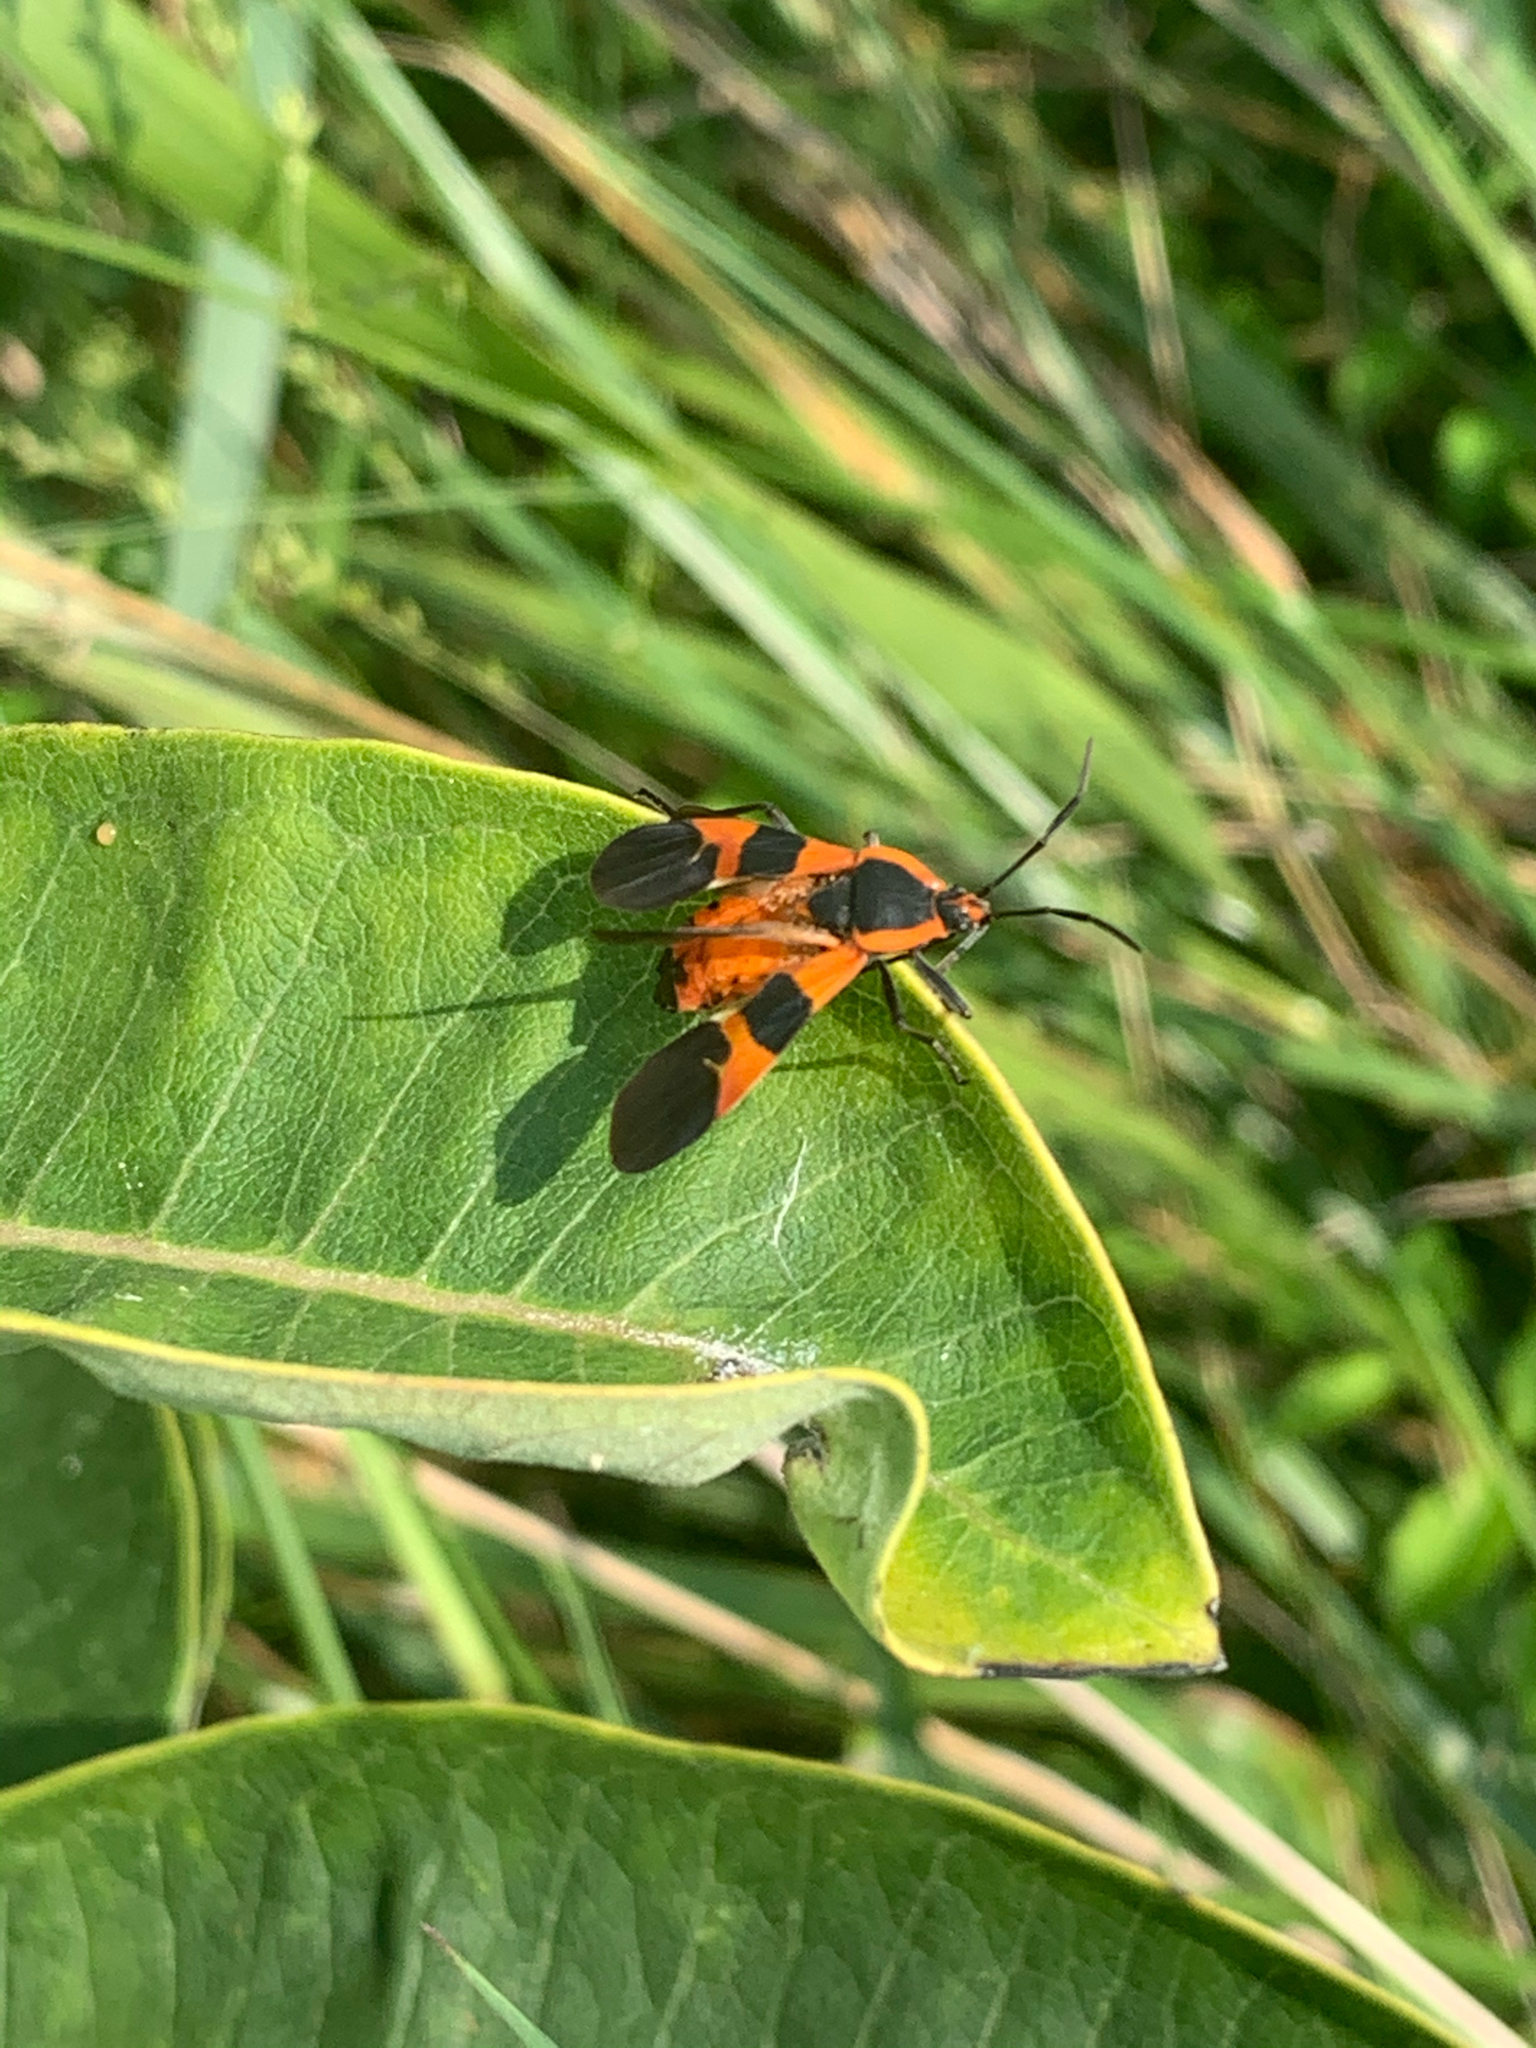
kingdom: Animalia
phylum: Arthropoda
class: Insecta
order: Hemiptera
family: Lygaeidae
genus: Oncopeltus
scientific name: Oncopeltus fasciatus
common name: Large milkweed bug
